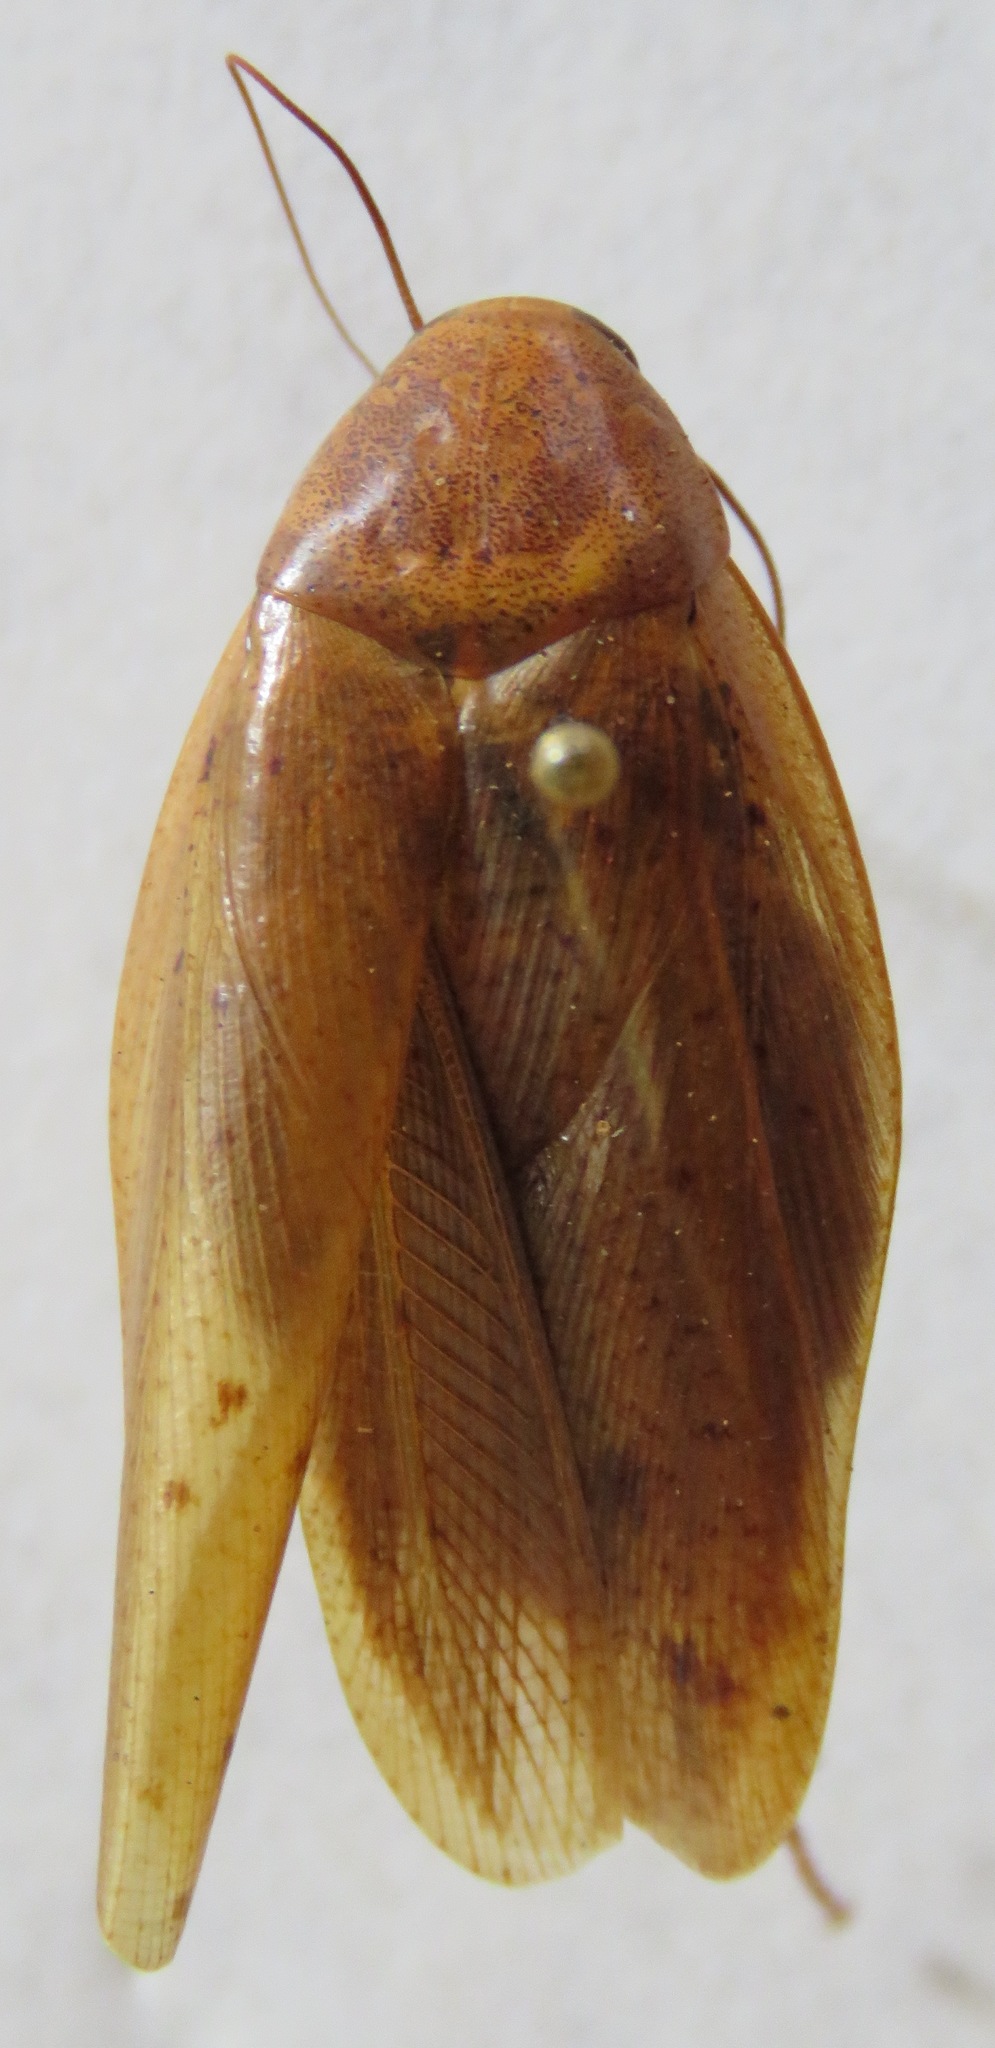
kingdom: Animalia
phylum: Arthropoda
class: Insecta
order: Blattodea
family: Blaberidae
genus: Epilampra
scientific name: Epilampra maya
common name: Maya cockroach
